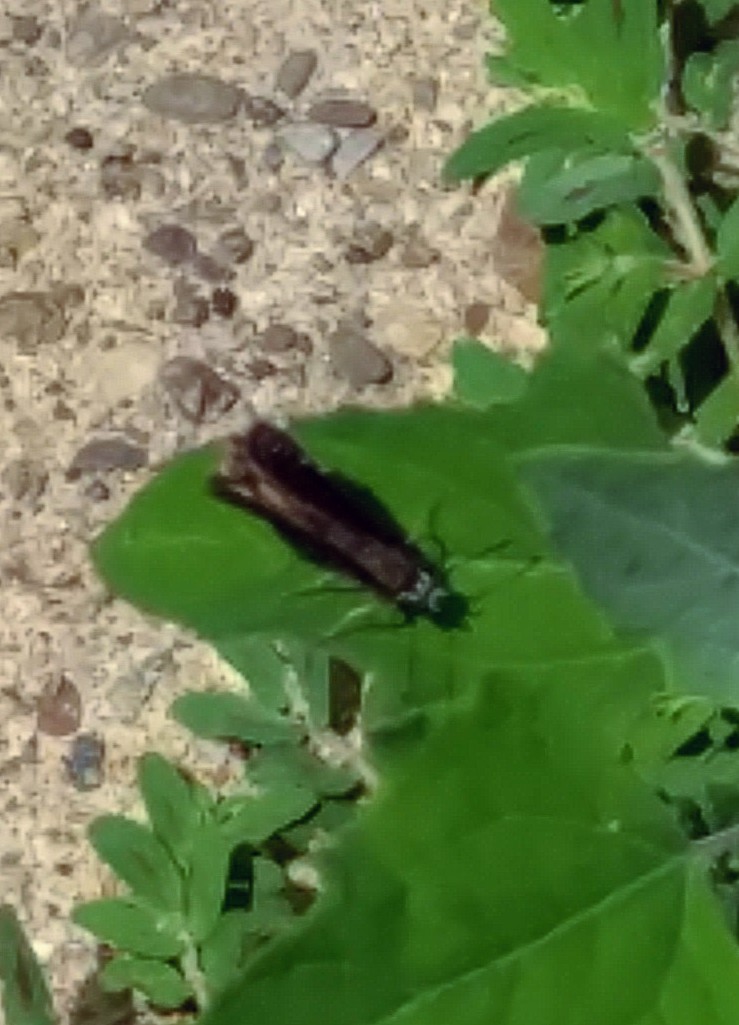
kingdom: Animalia
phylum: Arthropoda
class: Insecta
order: Lepidoptera
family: Hesperiidae
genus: Pholisora
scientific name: Pholisora catullus
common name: Common sootywing
